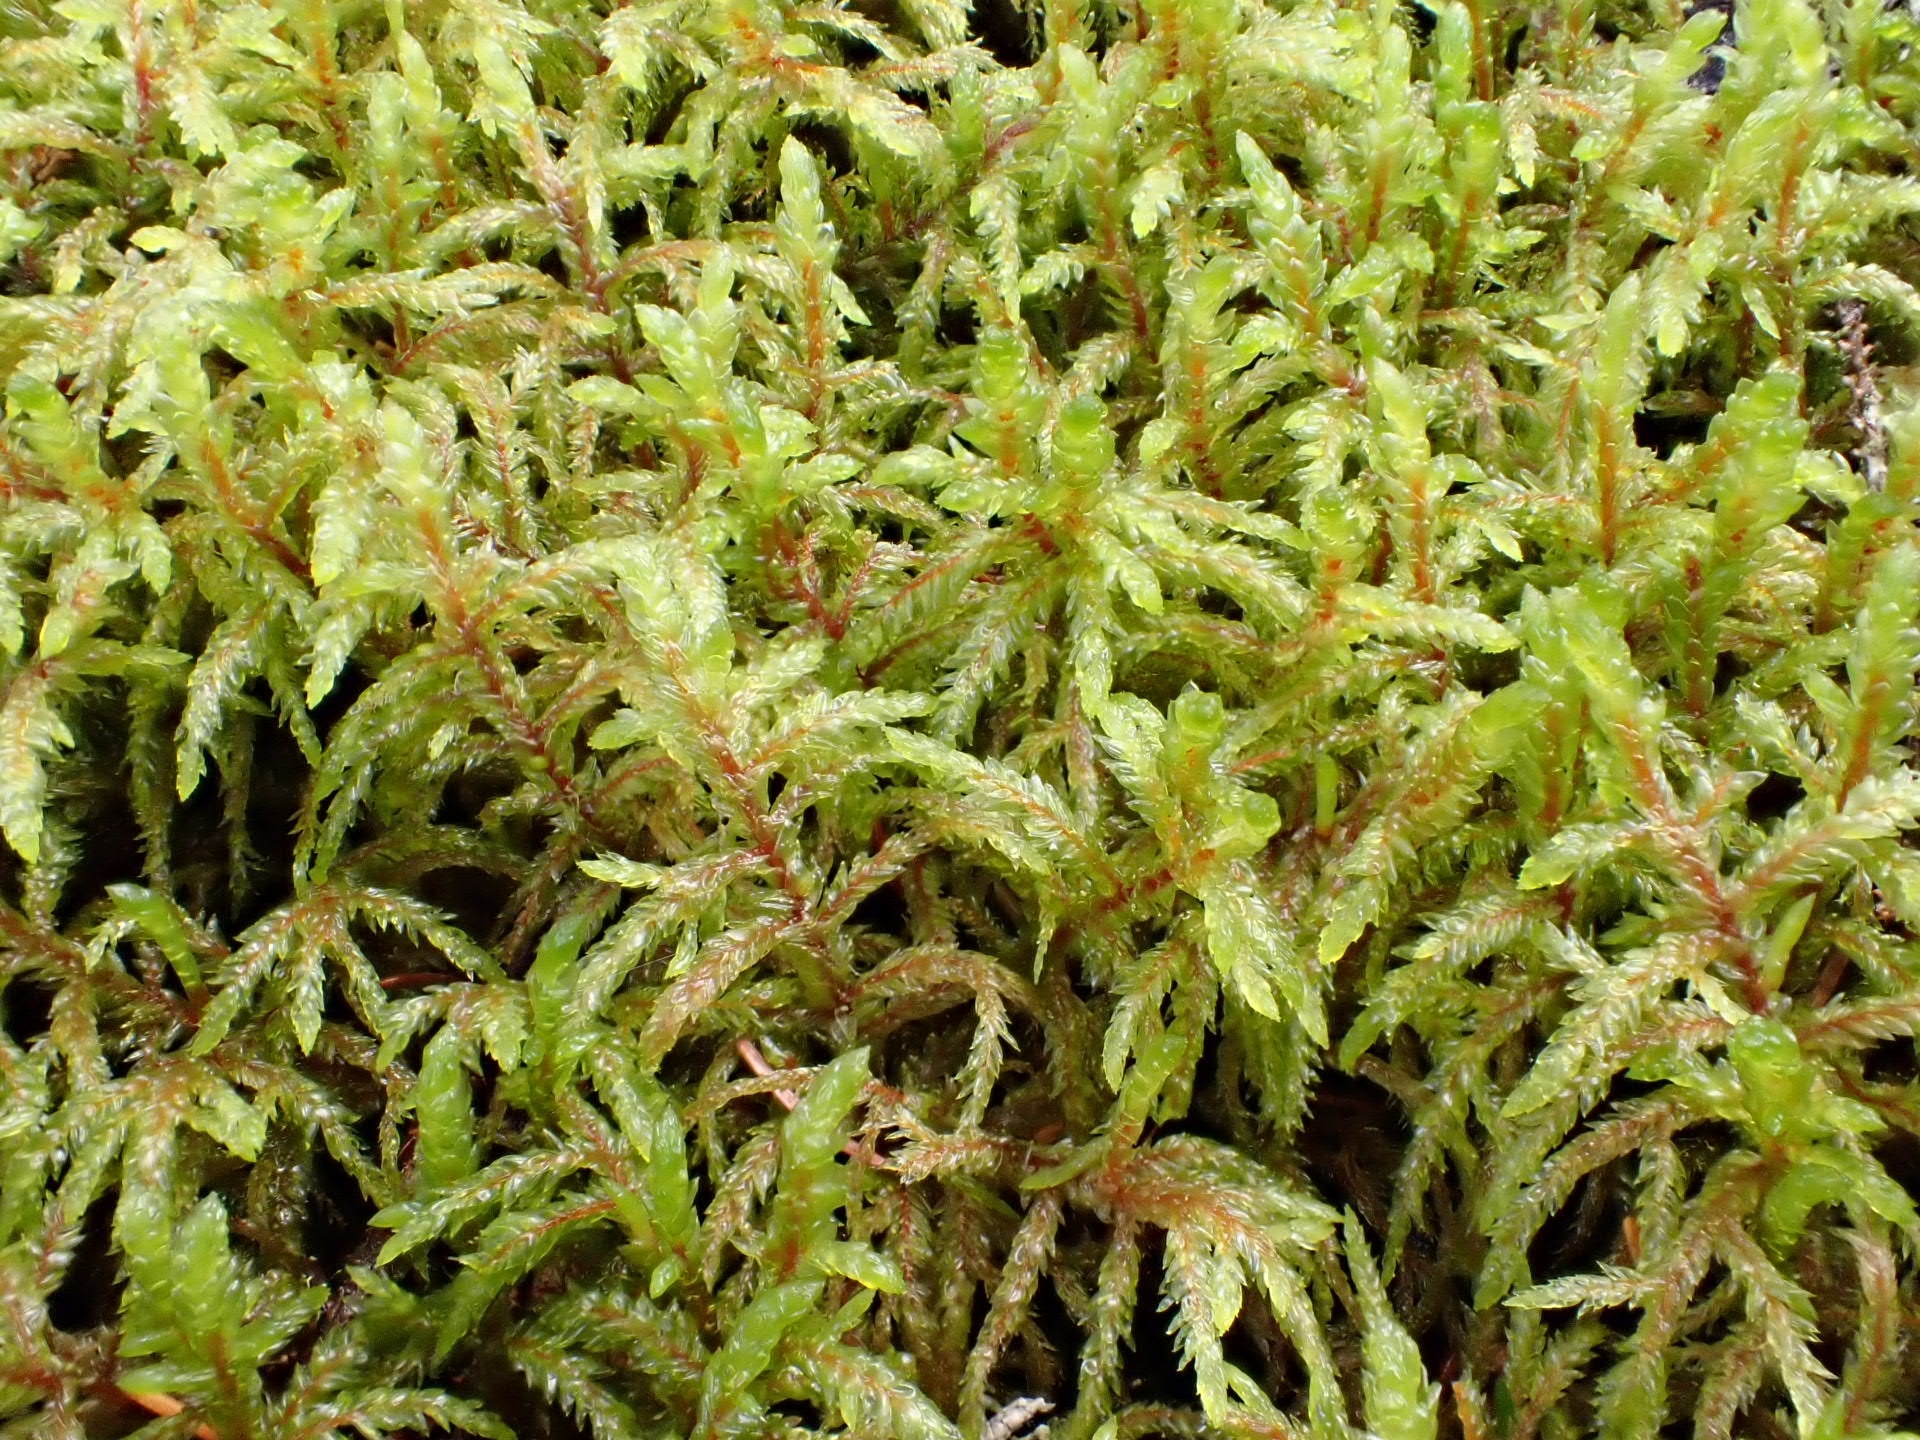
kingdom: Plantae
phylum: Bryophyta
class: Bryopsida
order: Hypnales
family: Hylocomiaceae
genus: Pleurozium
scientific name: Pleurozium schreberi
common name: Red-stemmed feather moss
